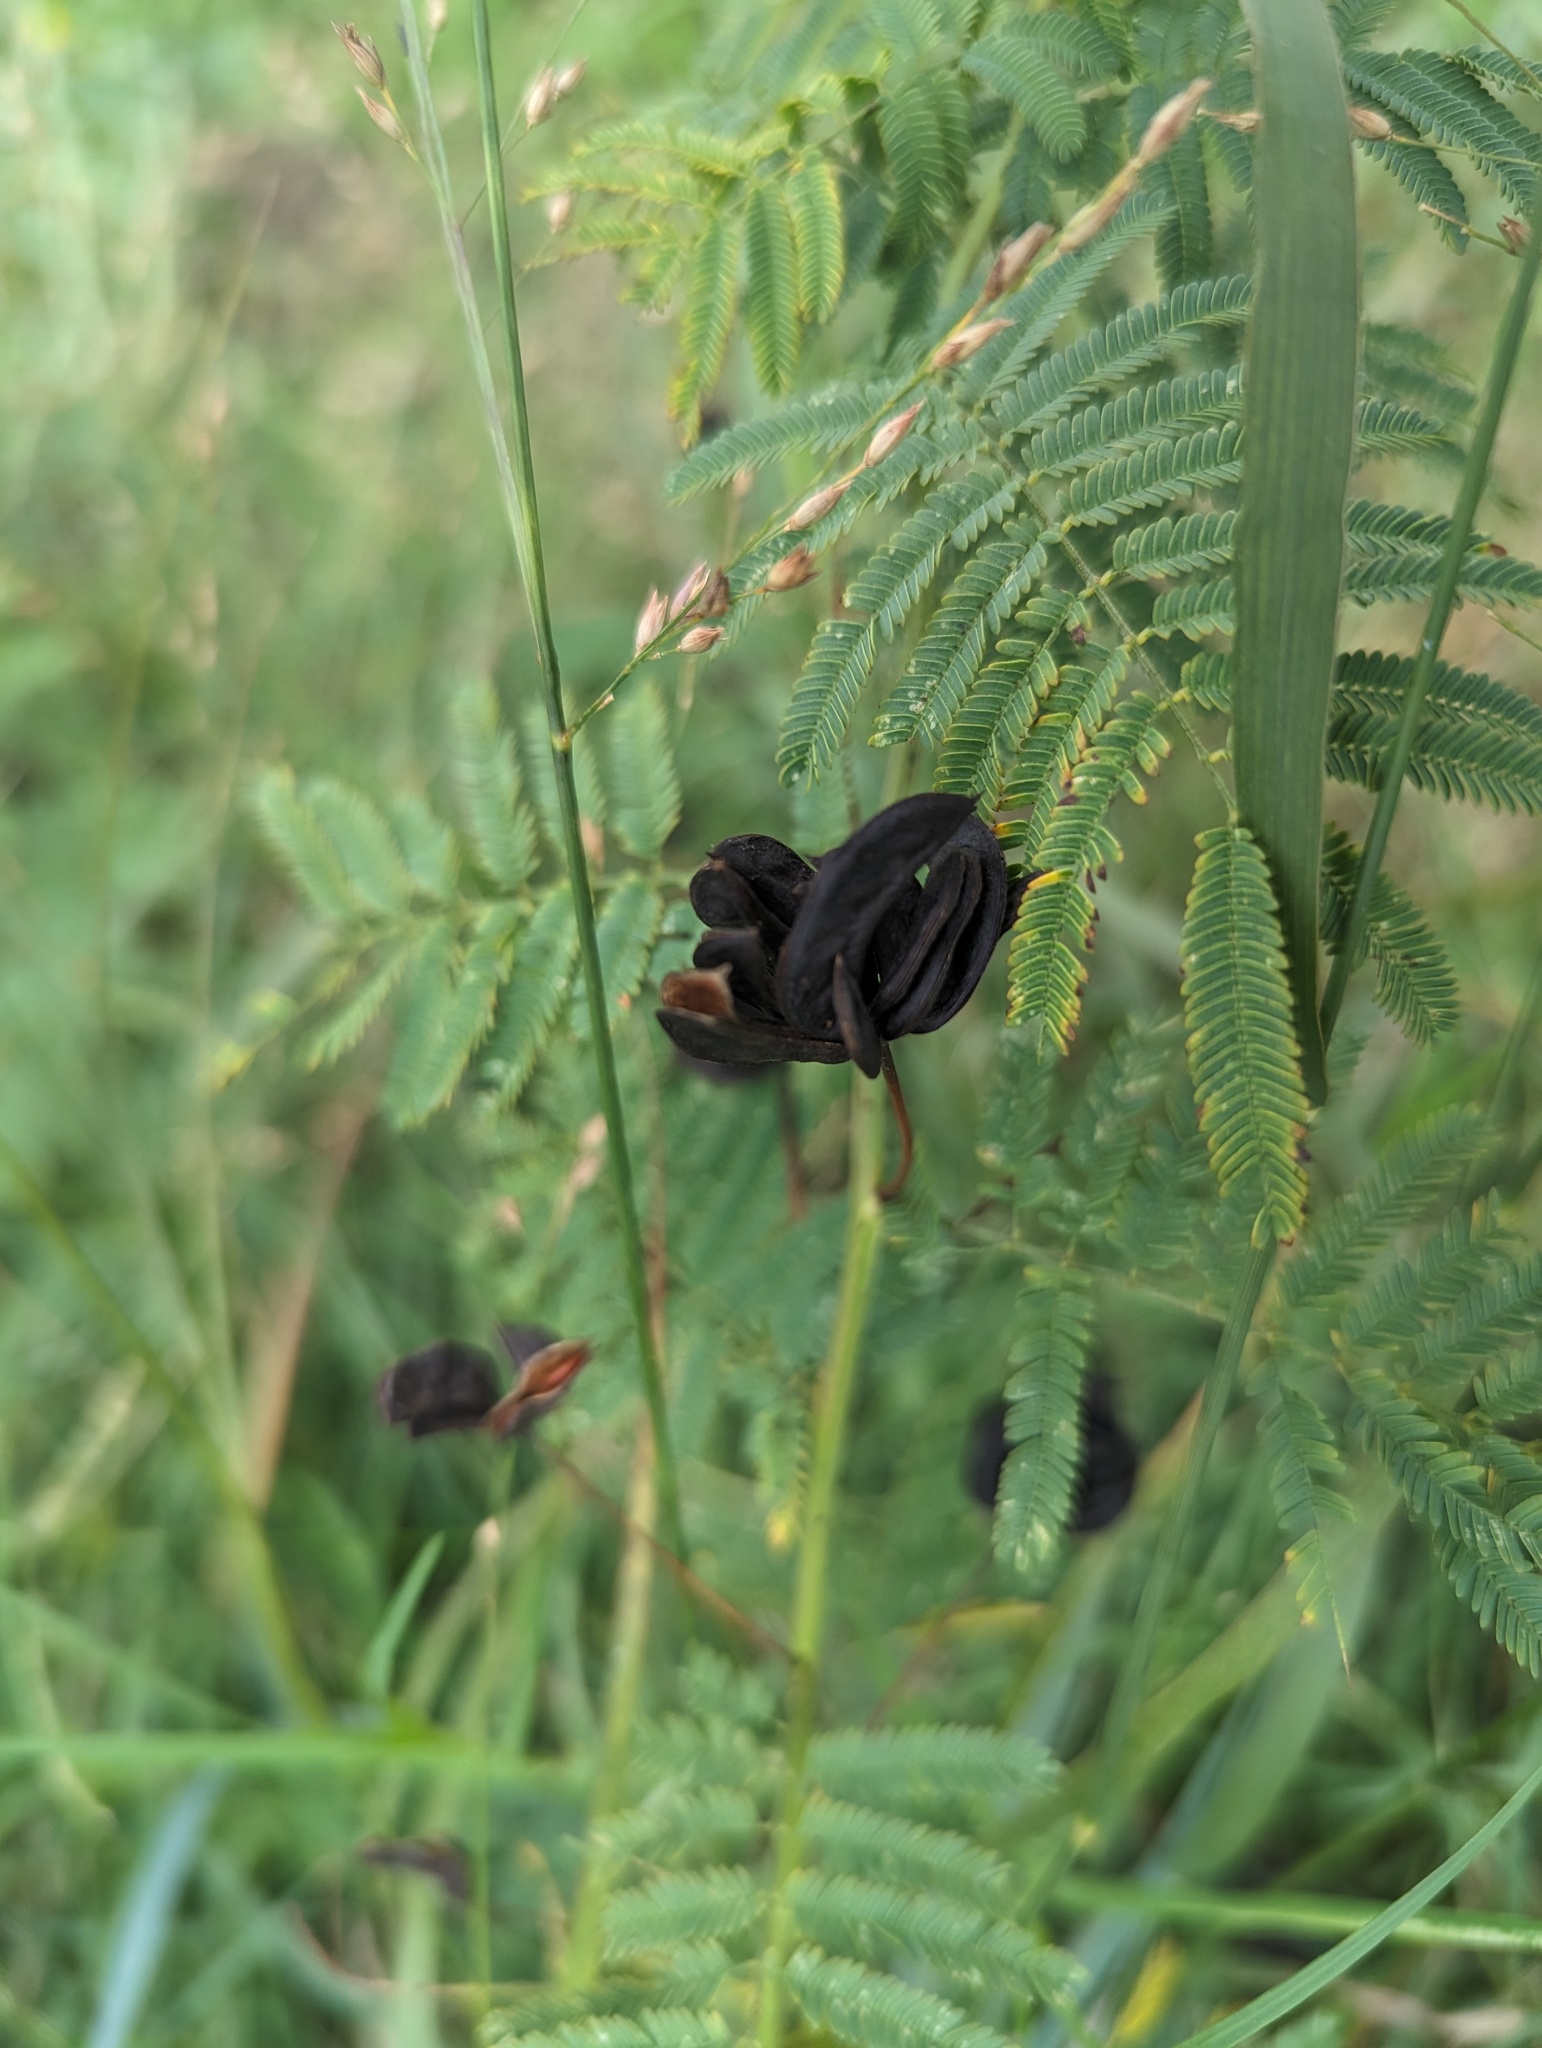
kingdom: Plantae
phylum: Tracheophyta
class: Magnoliopsida
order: Fabales
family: Fabaceae
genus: Desmanthus
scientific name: Desmanthus illinoensis
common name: Illinois bundle-flower
